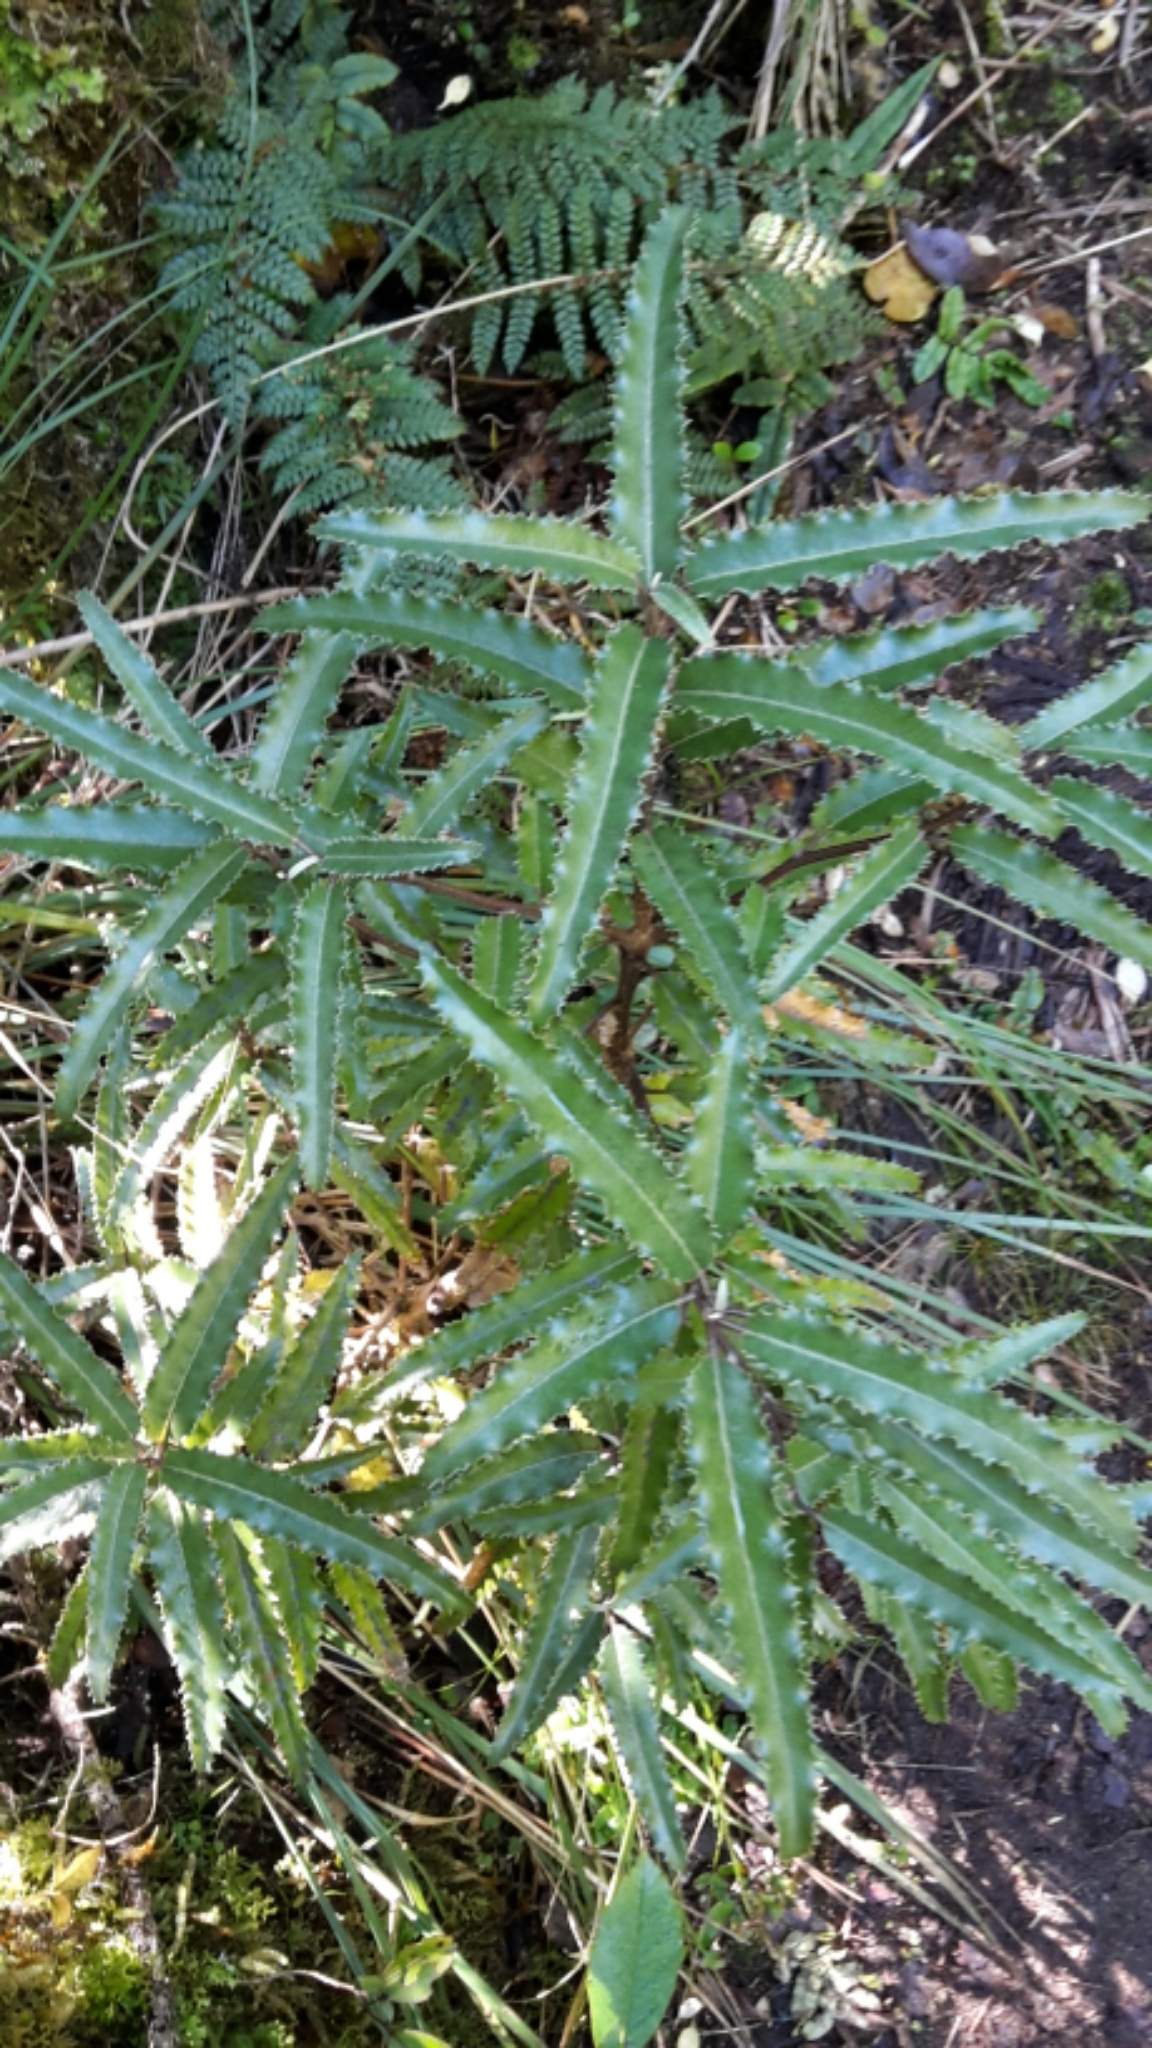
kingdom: Plantae
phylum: Tracheophyta
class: Magnoliopsida
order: Asterales
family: Asteraceae
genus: Olearia
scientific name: Olearia ilicifolia
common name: Maori-holly
